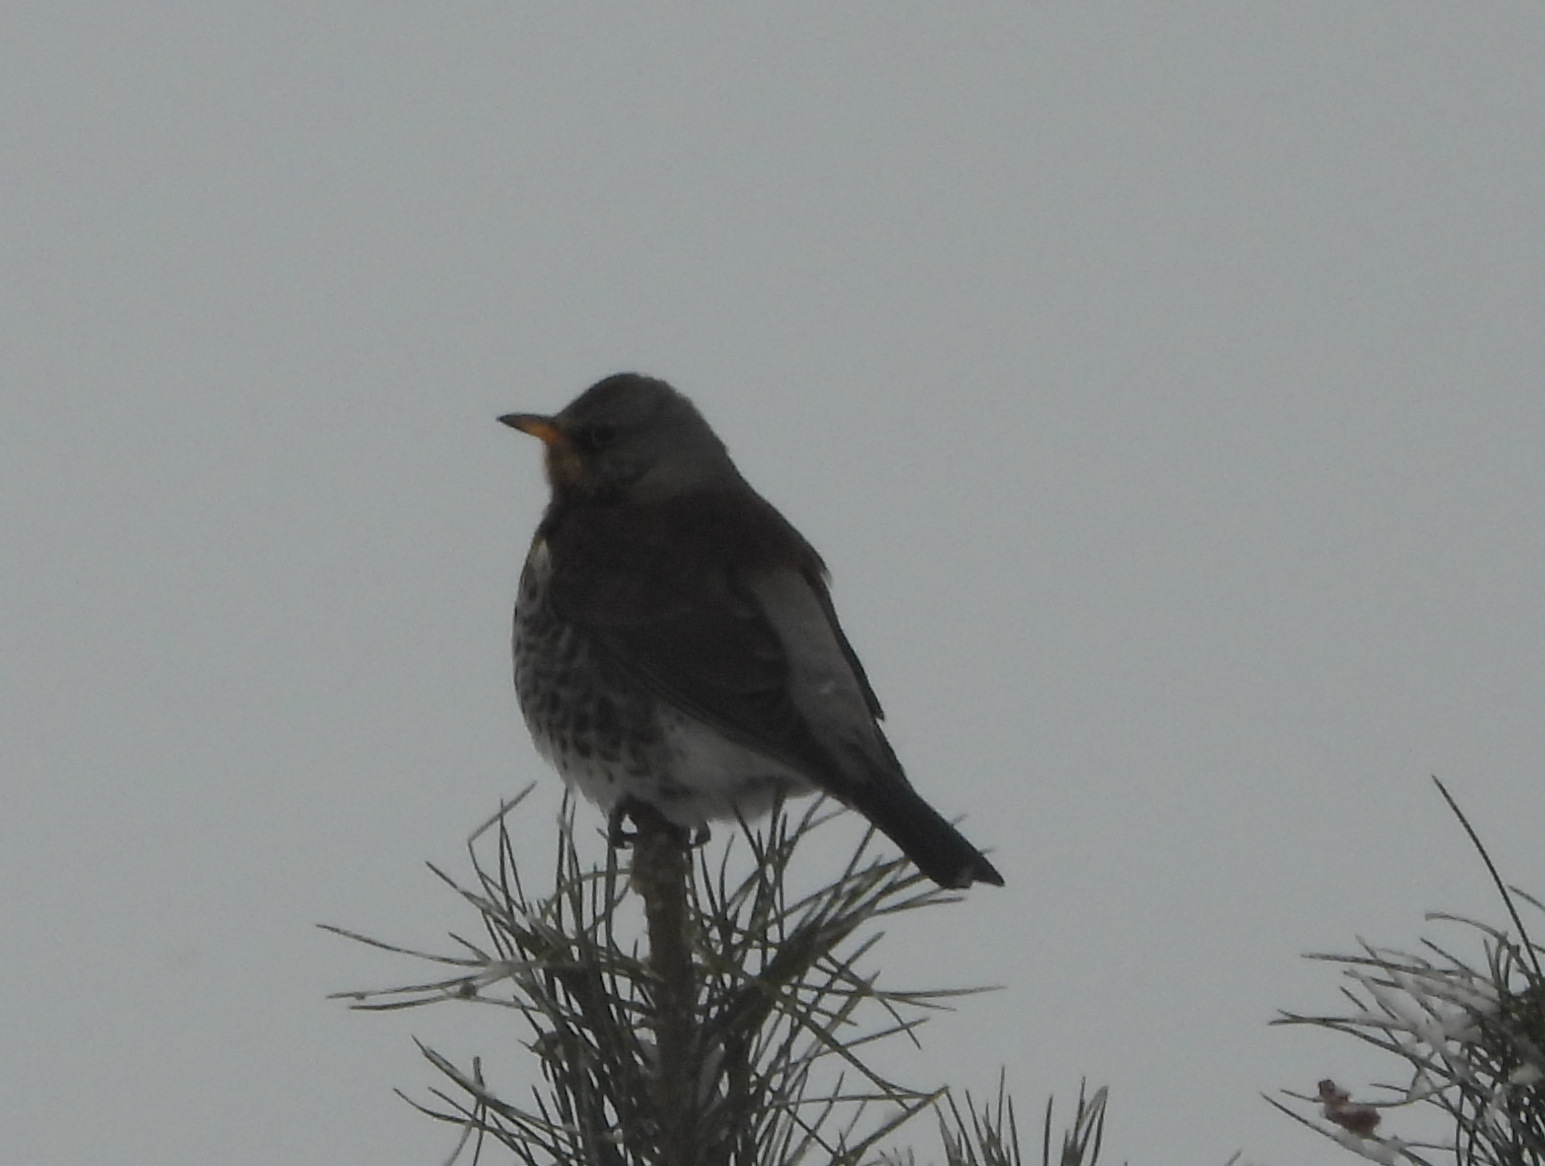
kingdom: Animalia
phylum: Chordata
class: Aves
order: Passeriformes
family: Turdidae
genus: Turdus
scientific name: Turdus pilaris
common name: Fieldfare
